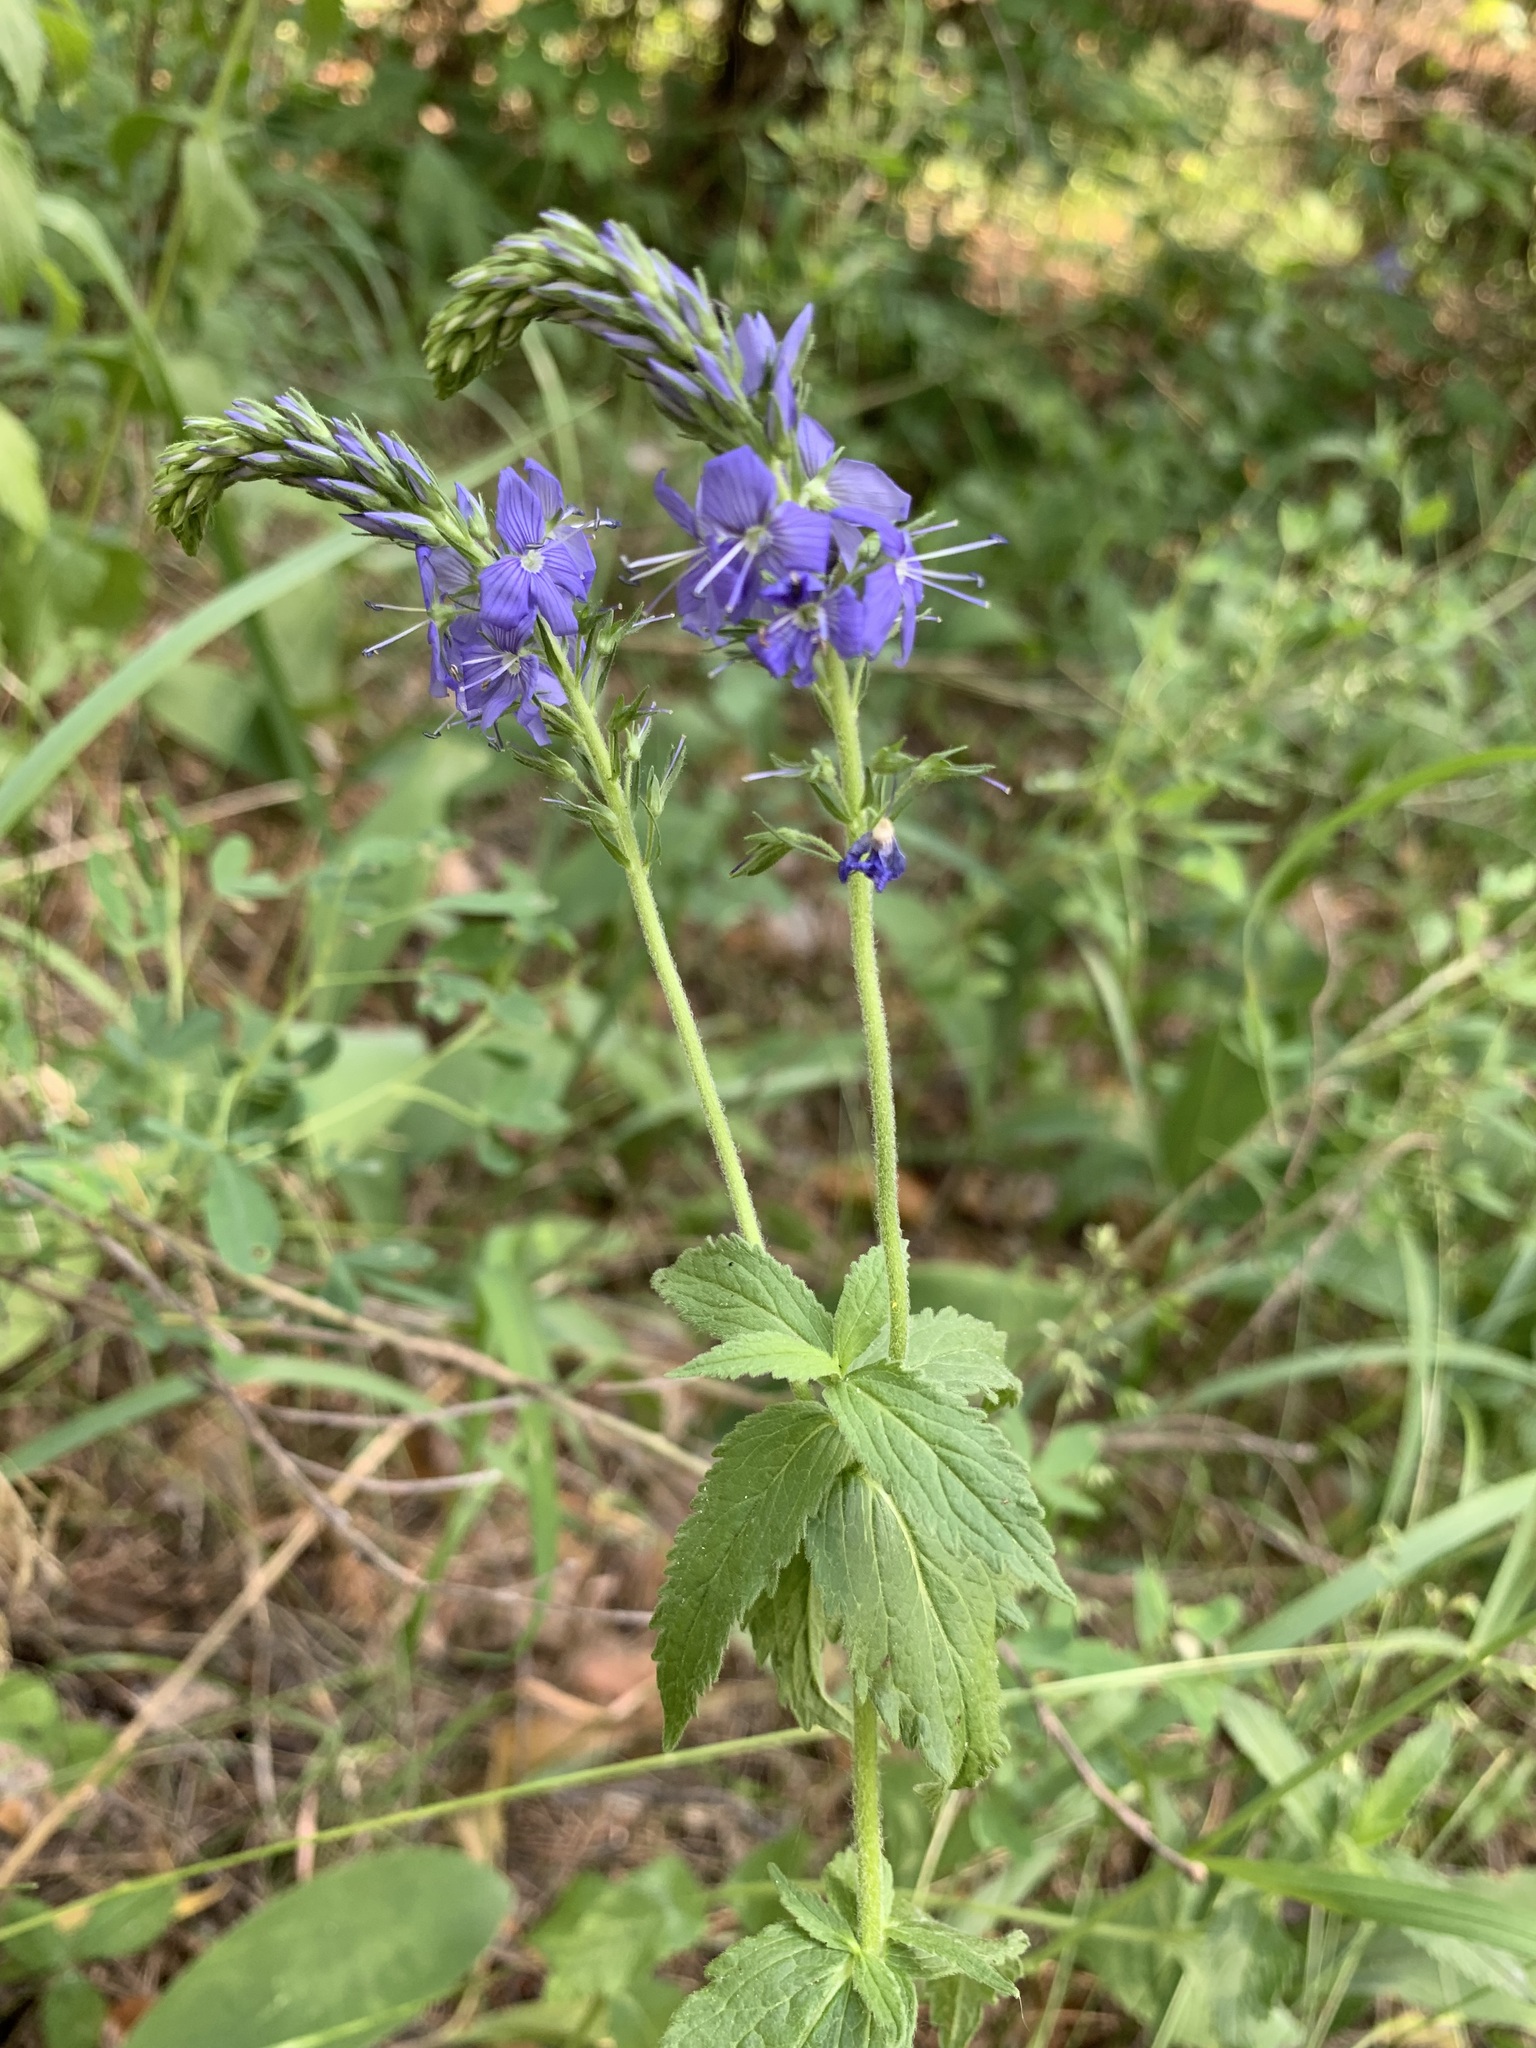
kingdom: Plantae
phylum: Tracheophyta
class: Magnoliopsida
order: Lamiales
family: Plantaginaceae
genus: Veronica
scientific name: Veronica teucrium
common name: Large speedwell
